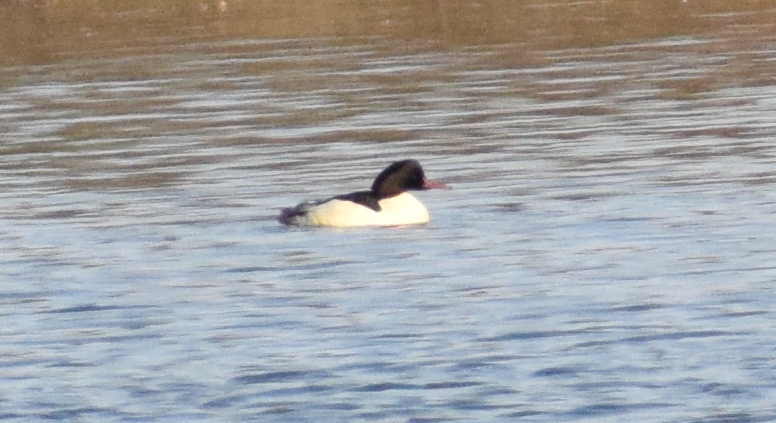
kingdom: Animalia
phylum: Chordata
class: Aves
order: Anseriformes
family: Anatidae
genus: Mergus
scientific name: Mergus merganser
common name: Common merganser
